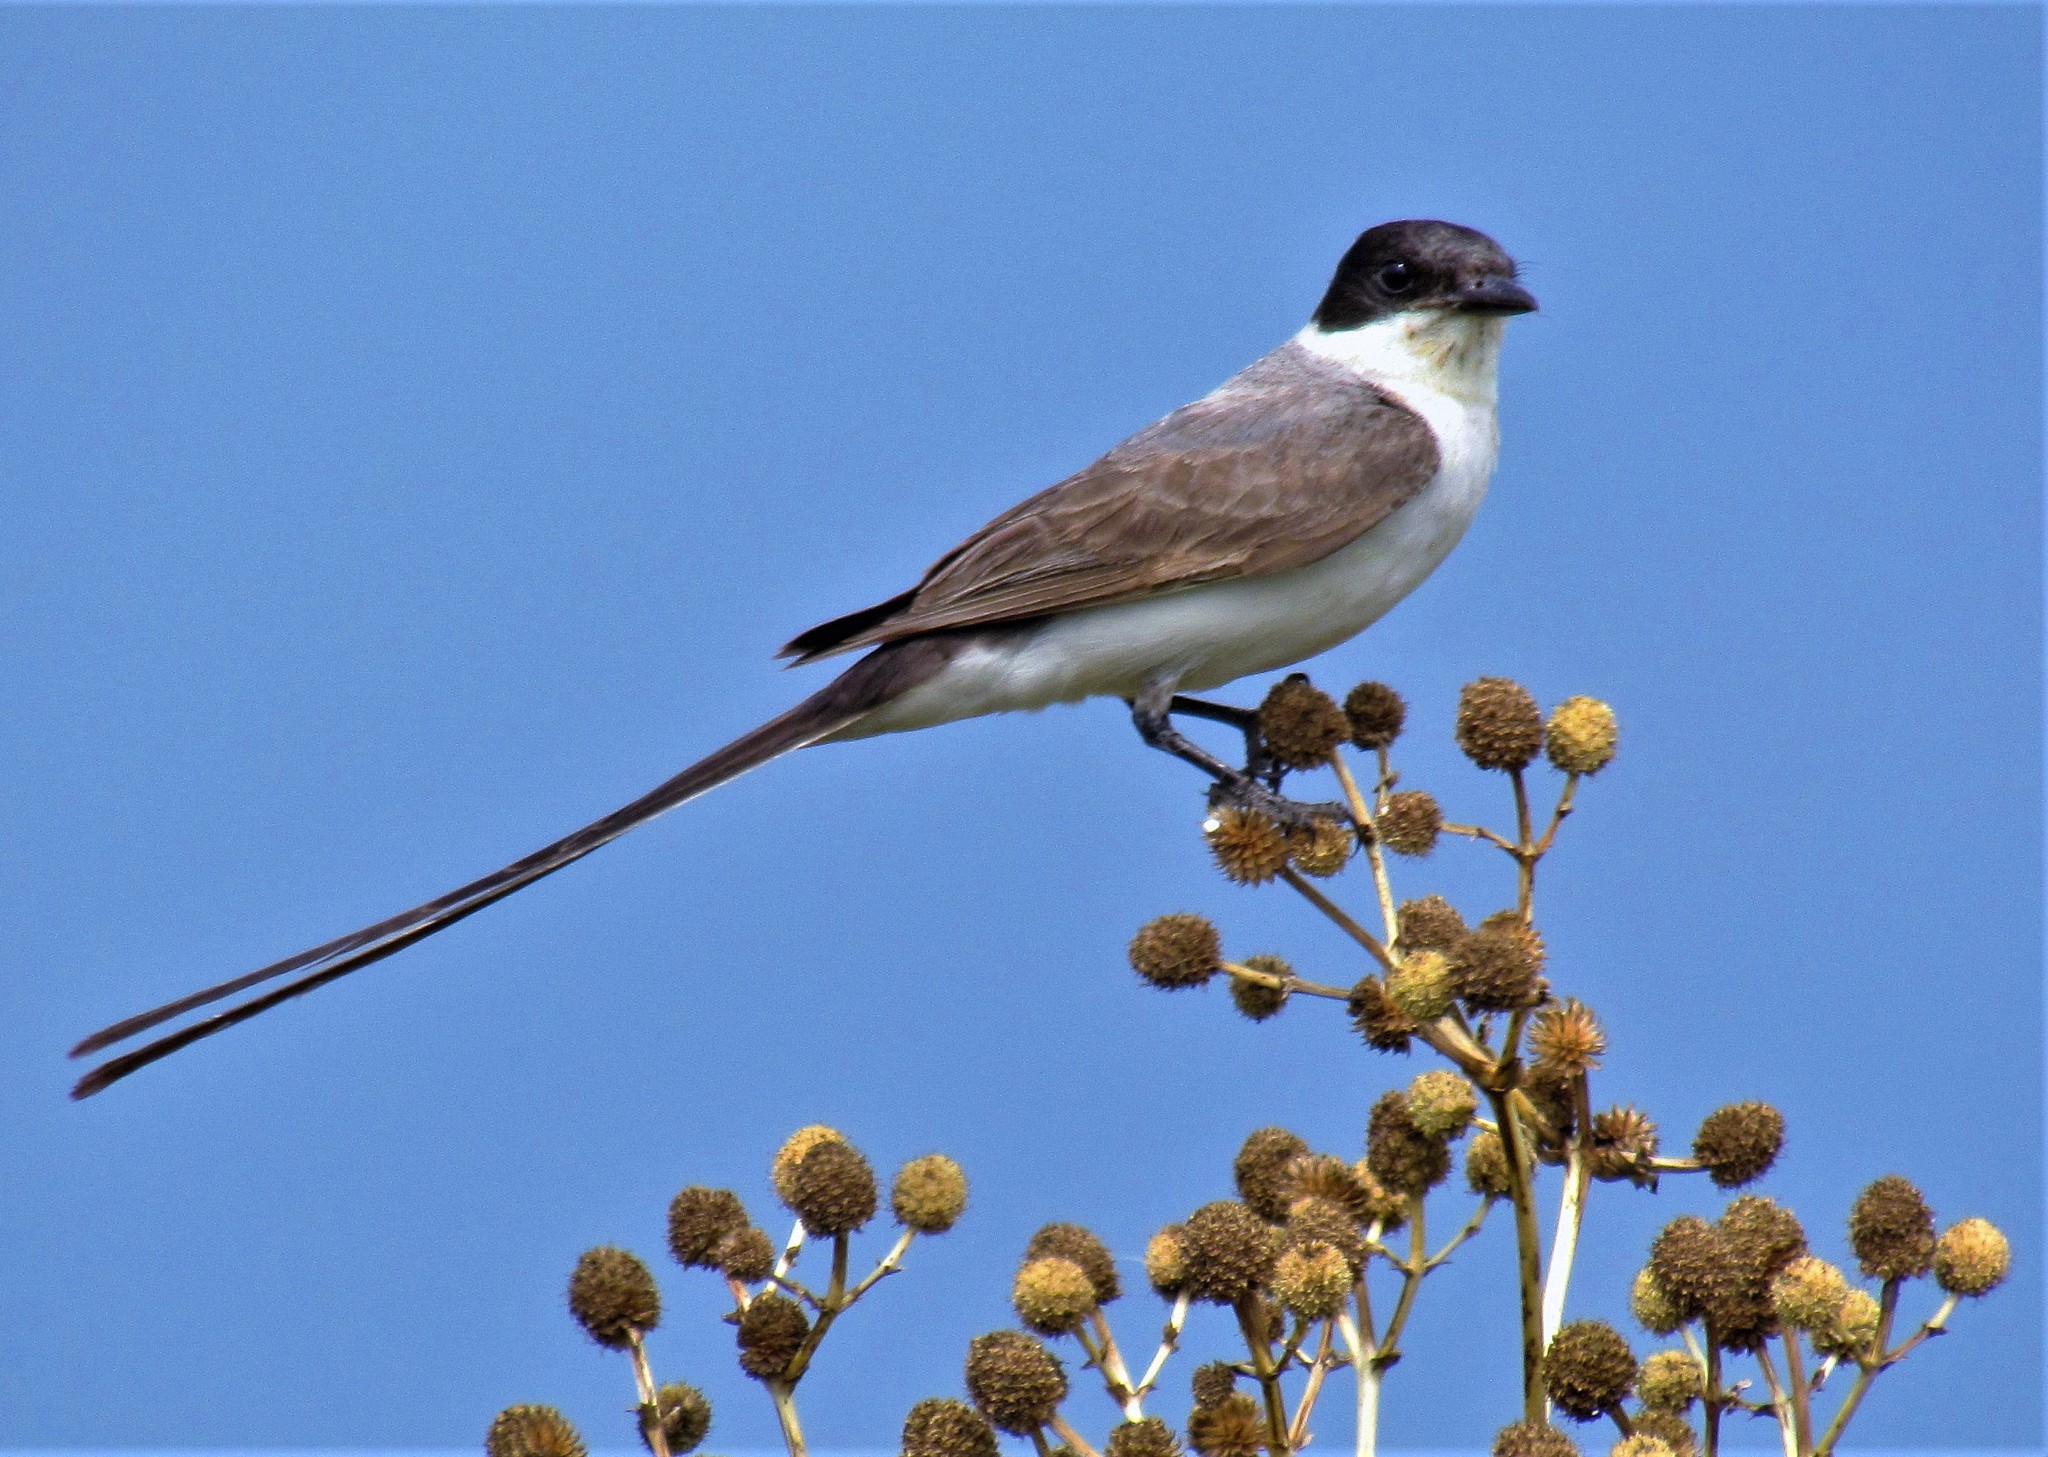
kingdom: Animalia
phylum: Chordata
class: Aves
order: Passeriformes
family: Tyrannidae
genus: Tyrannus
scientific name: Tyrannus savana
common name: Fork-tailed flycatcher
